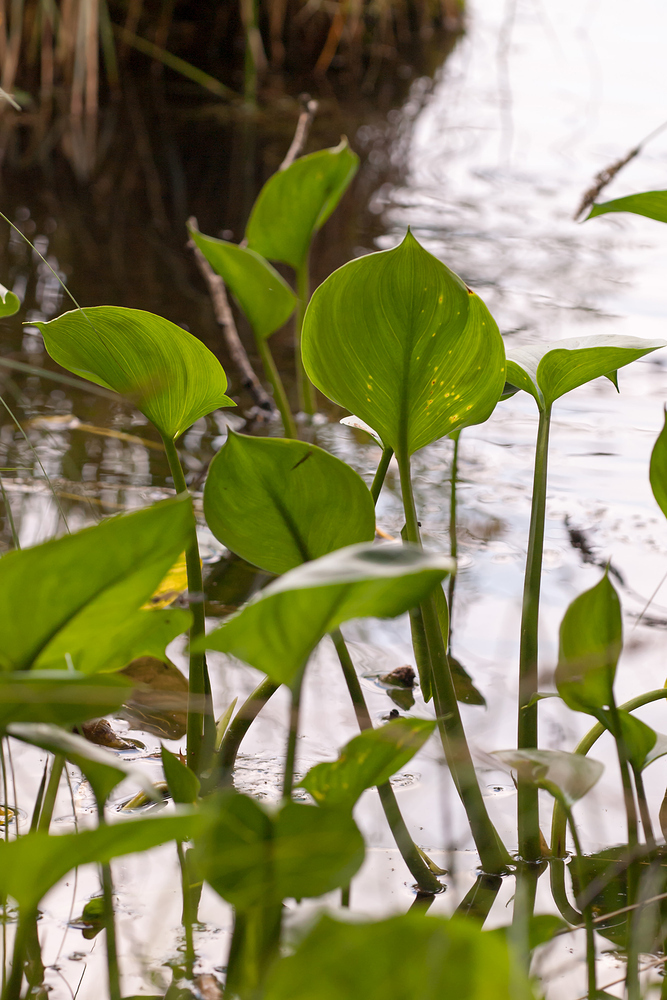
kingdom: Plantae
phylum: Tracheophyta
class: Liliopsida
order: Alismatales
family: Araceae
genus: Calla
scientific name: Calla palustris
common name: Bog arum
